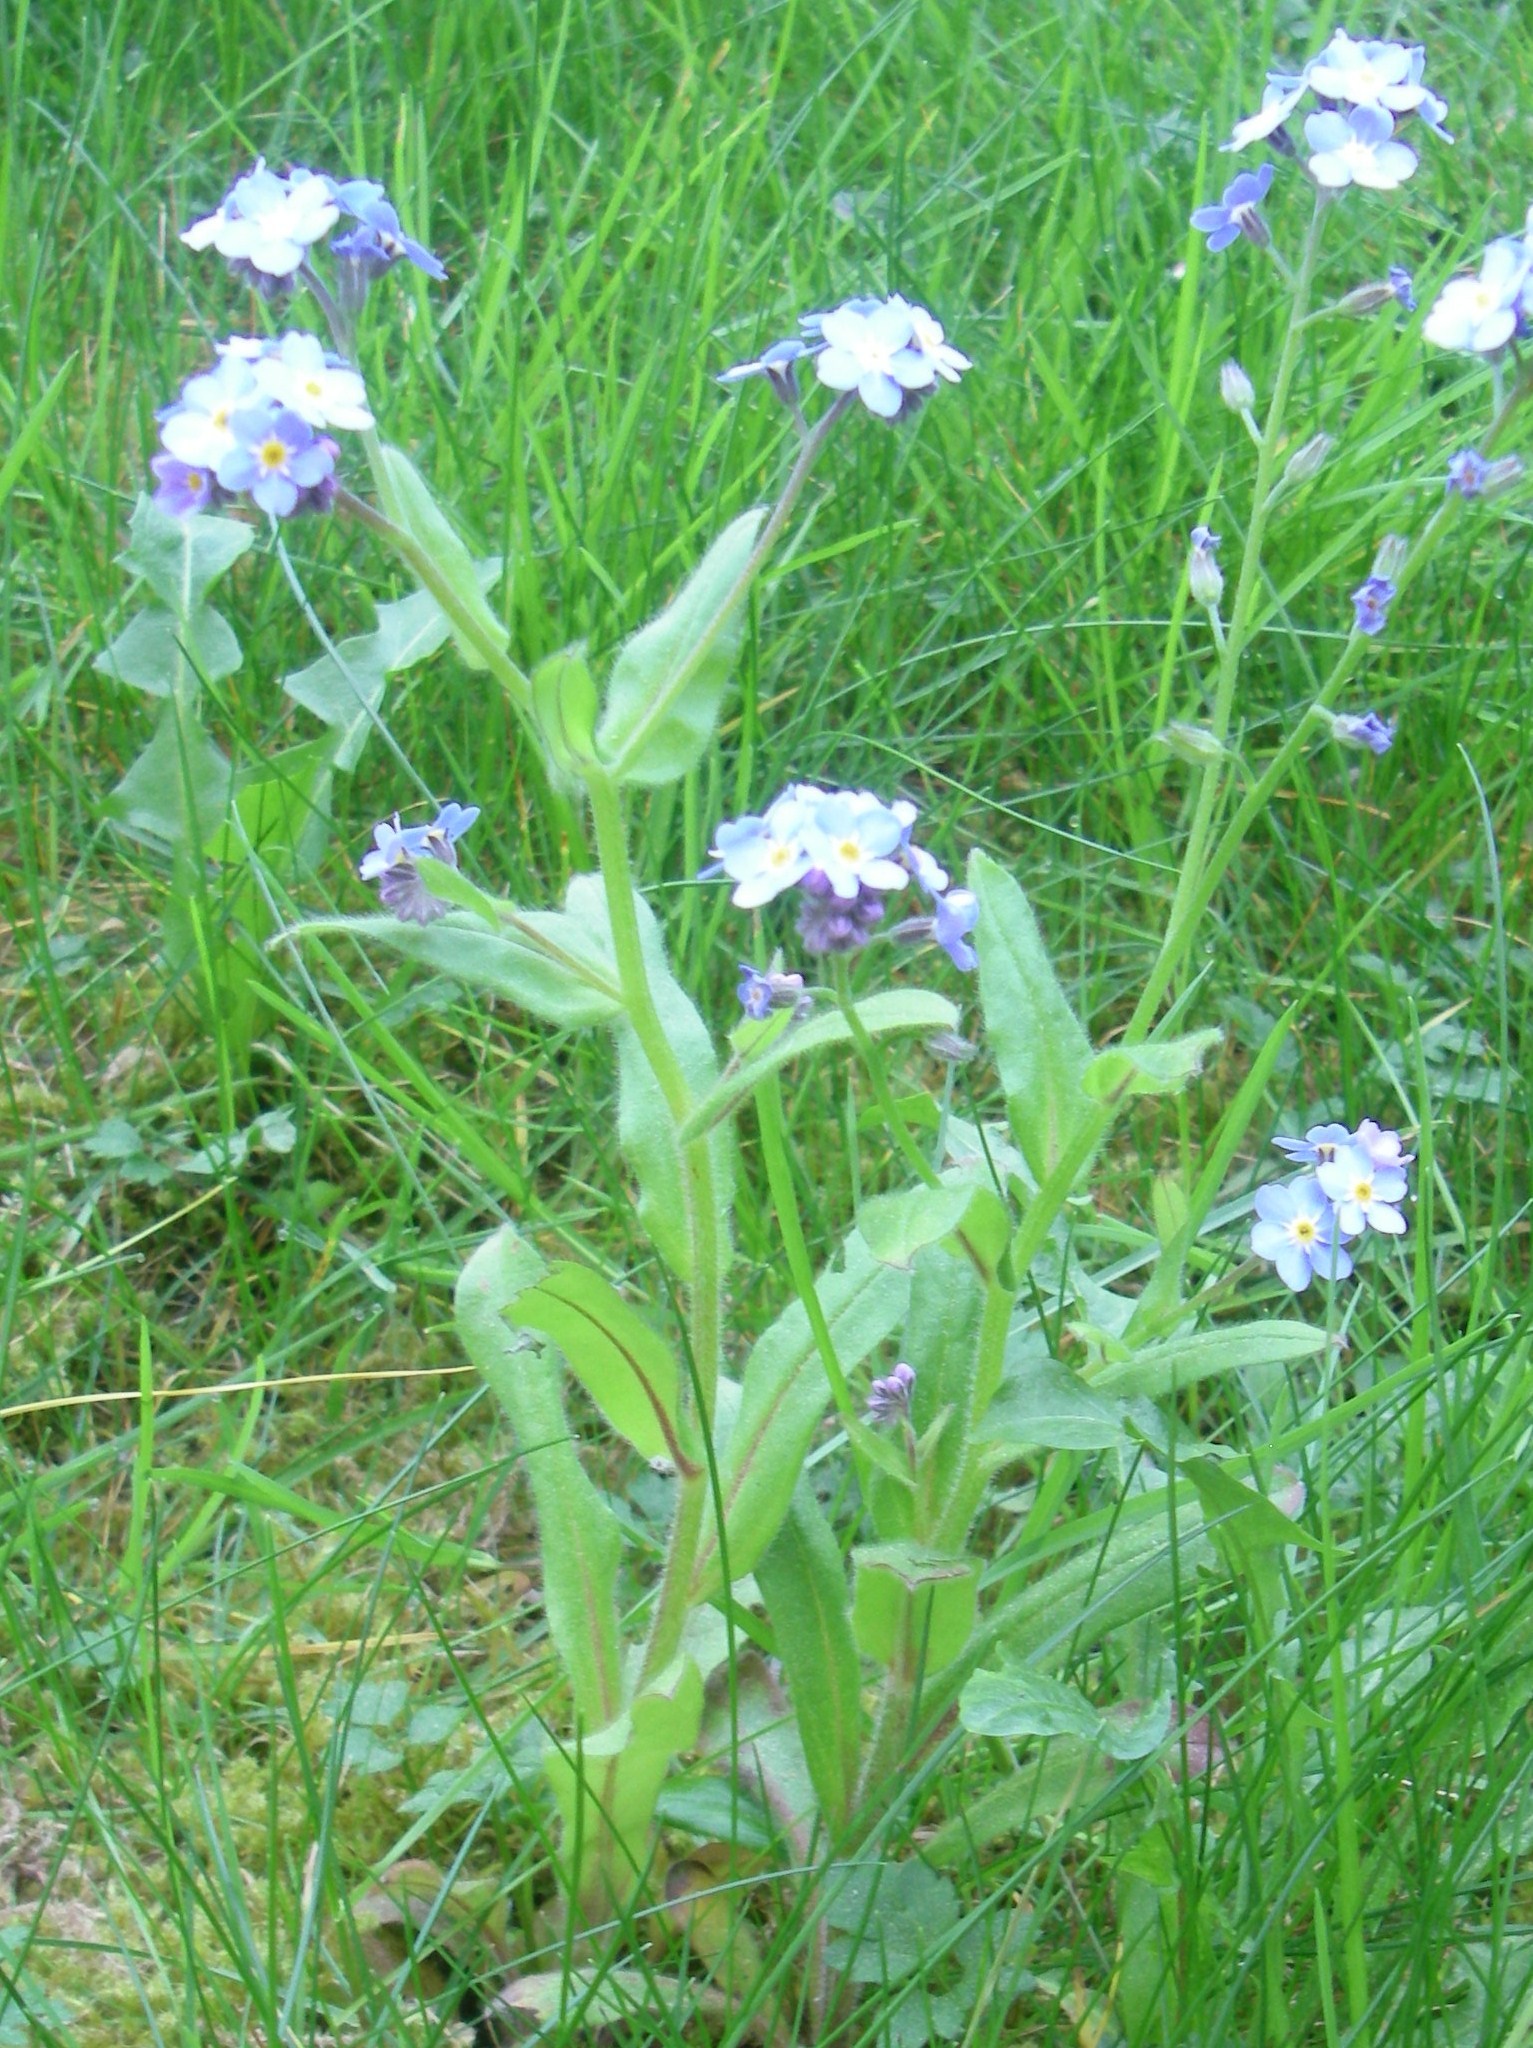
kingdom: Plantae
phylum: Tracheophyta
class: Magnoliopsida
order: Boraginales
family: Boraginaceae
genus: Myosotis
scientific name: Myosotis sylvatica
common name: Wood forget-me-not
